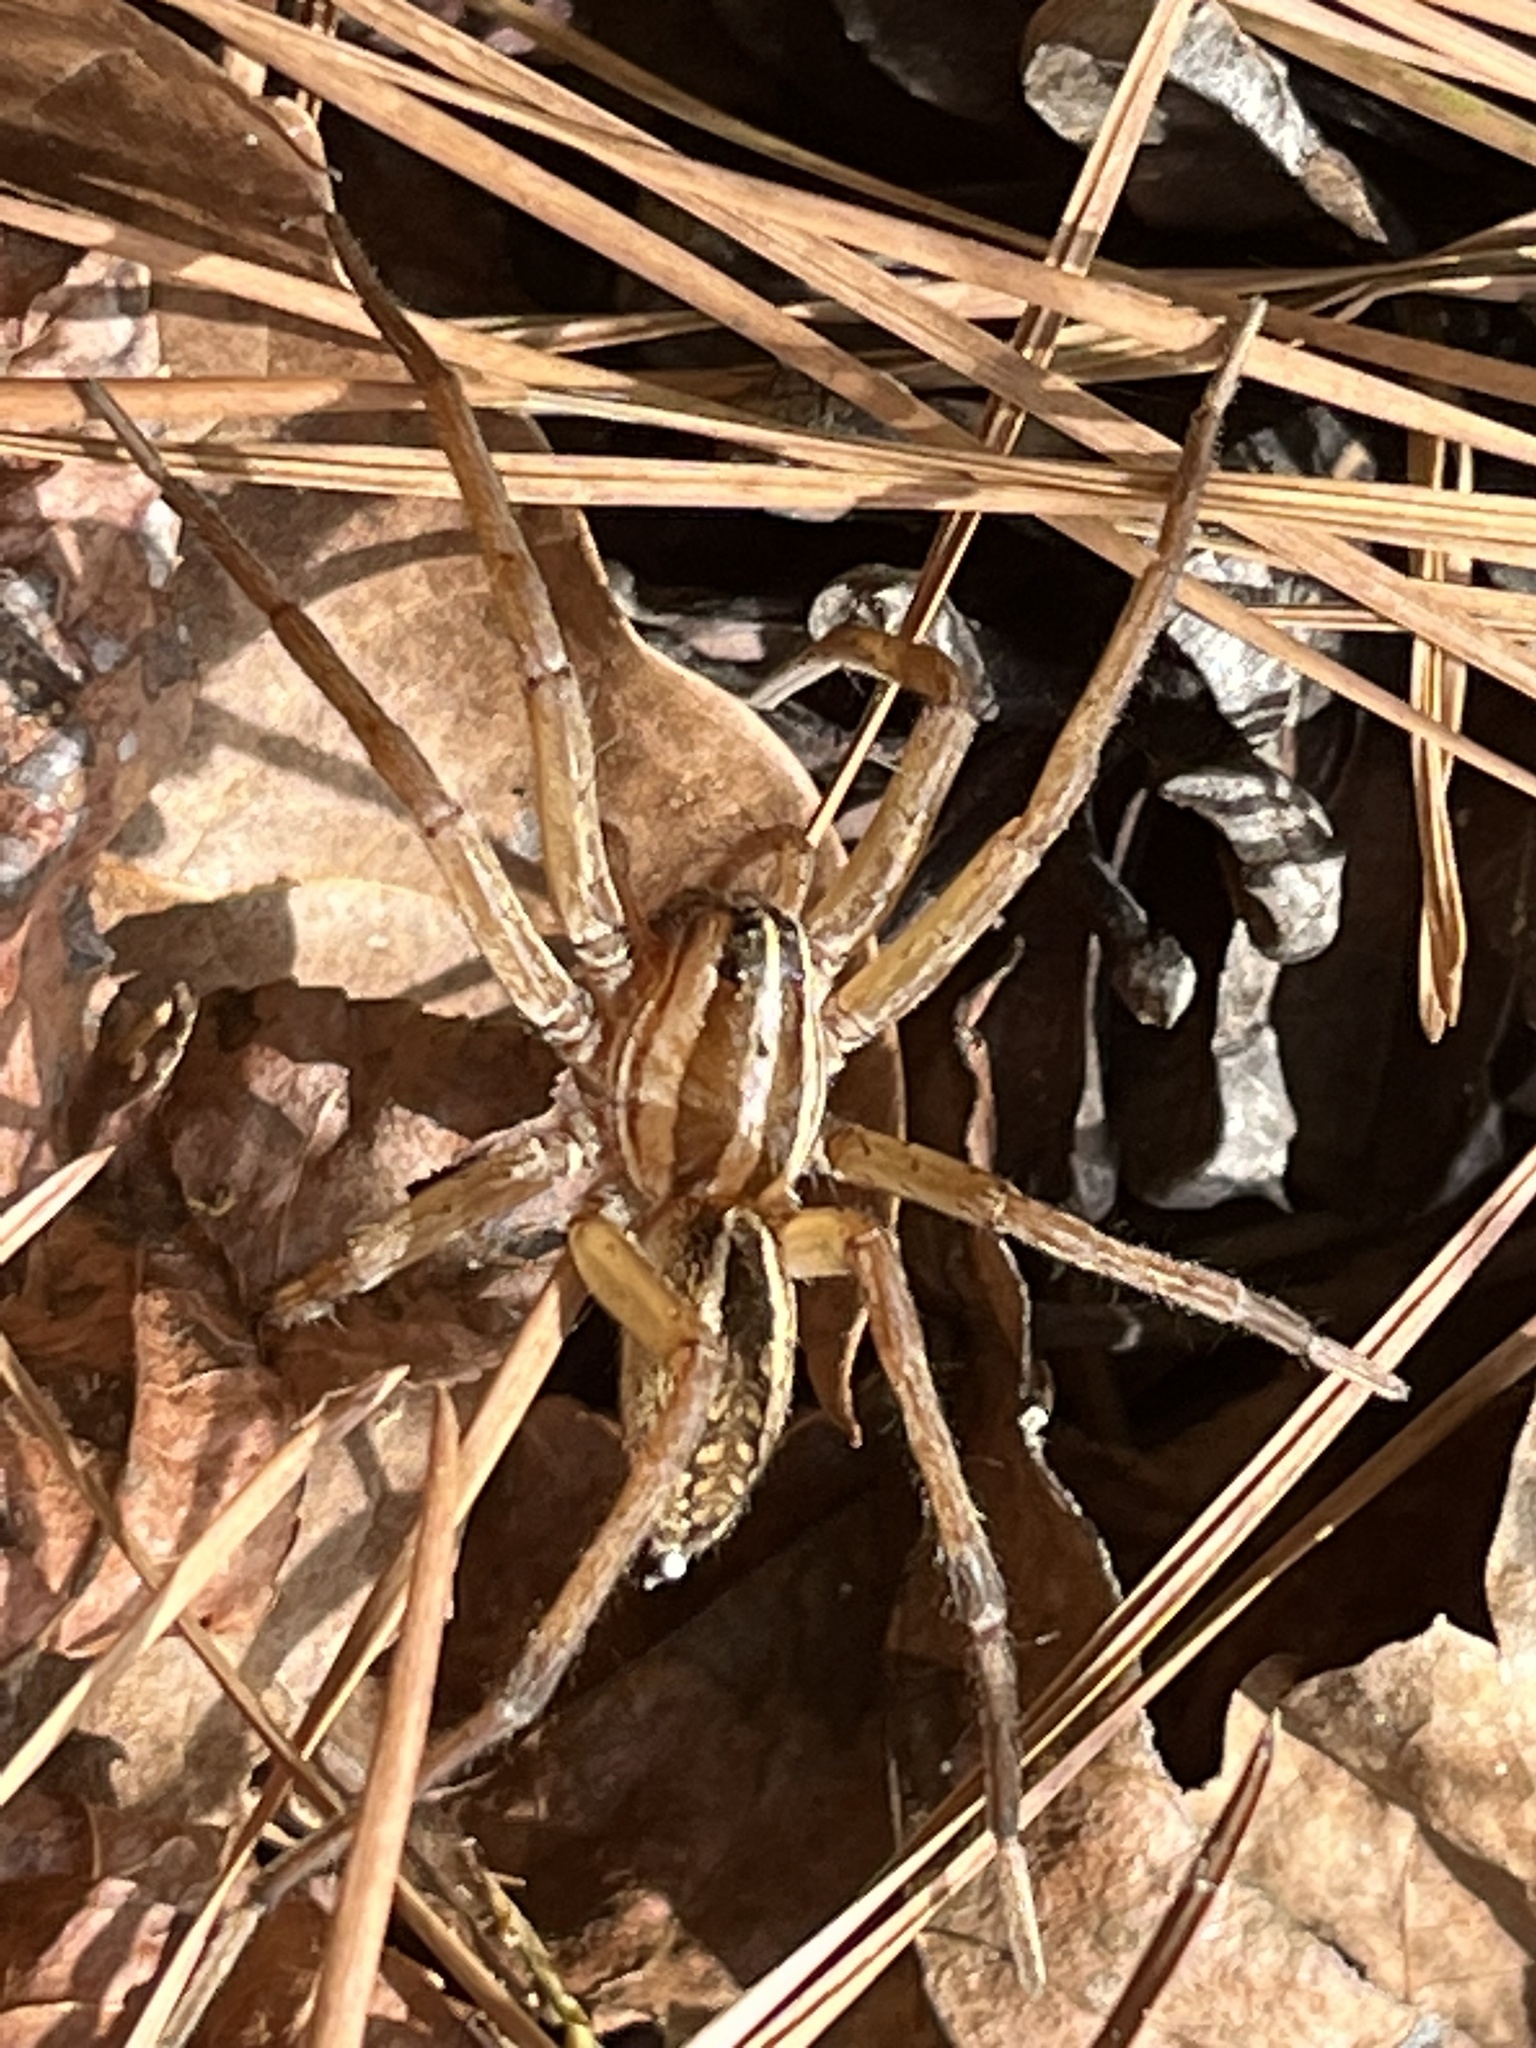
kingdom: Animalia
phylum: Arthropoda
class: Arachnida
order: Araneae
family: Lycosidae
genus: Rabidosa
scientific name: Rabidosa rabida
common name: Rabid wolf spider
